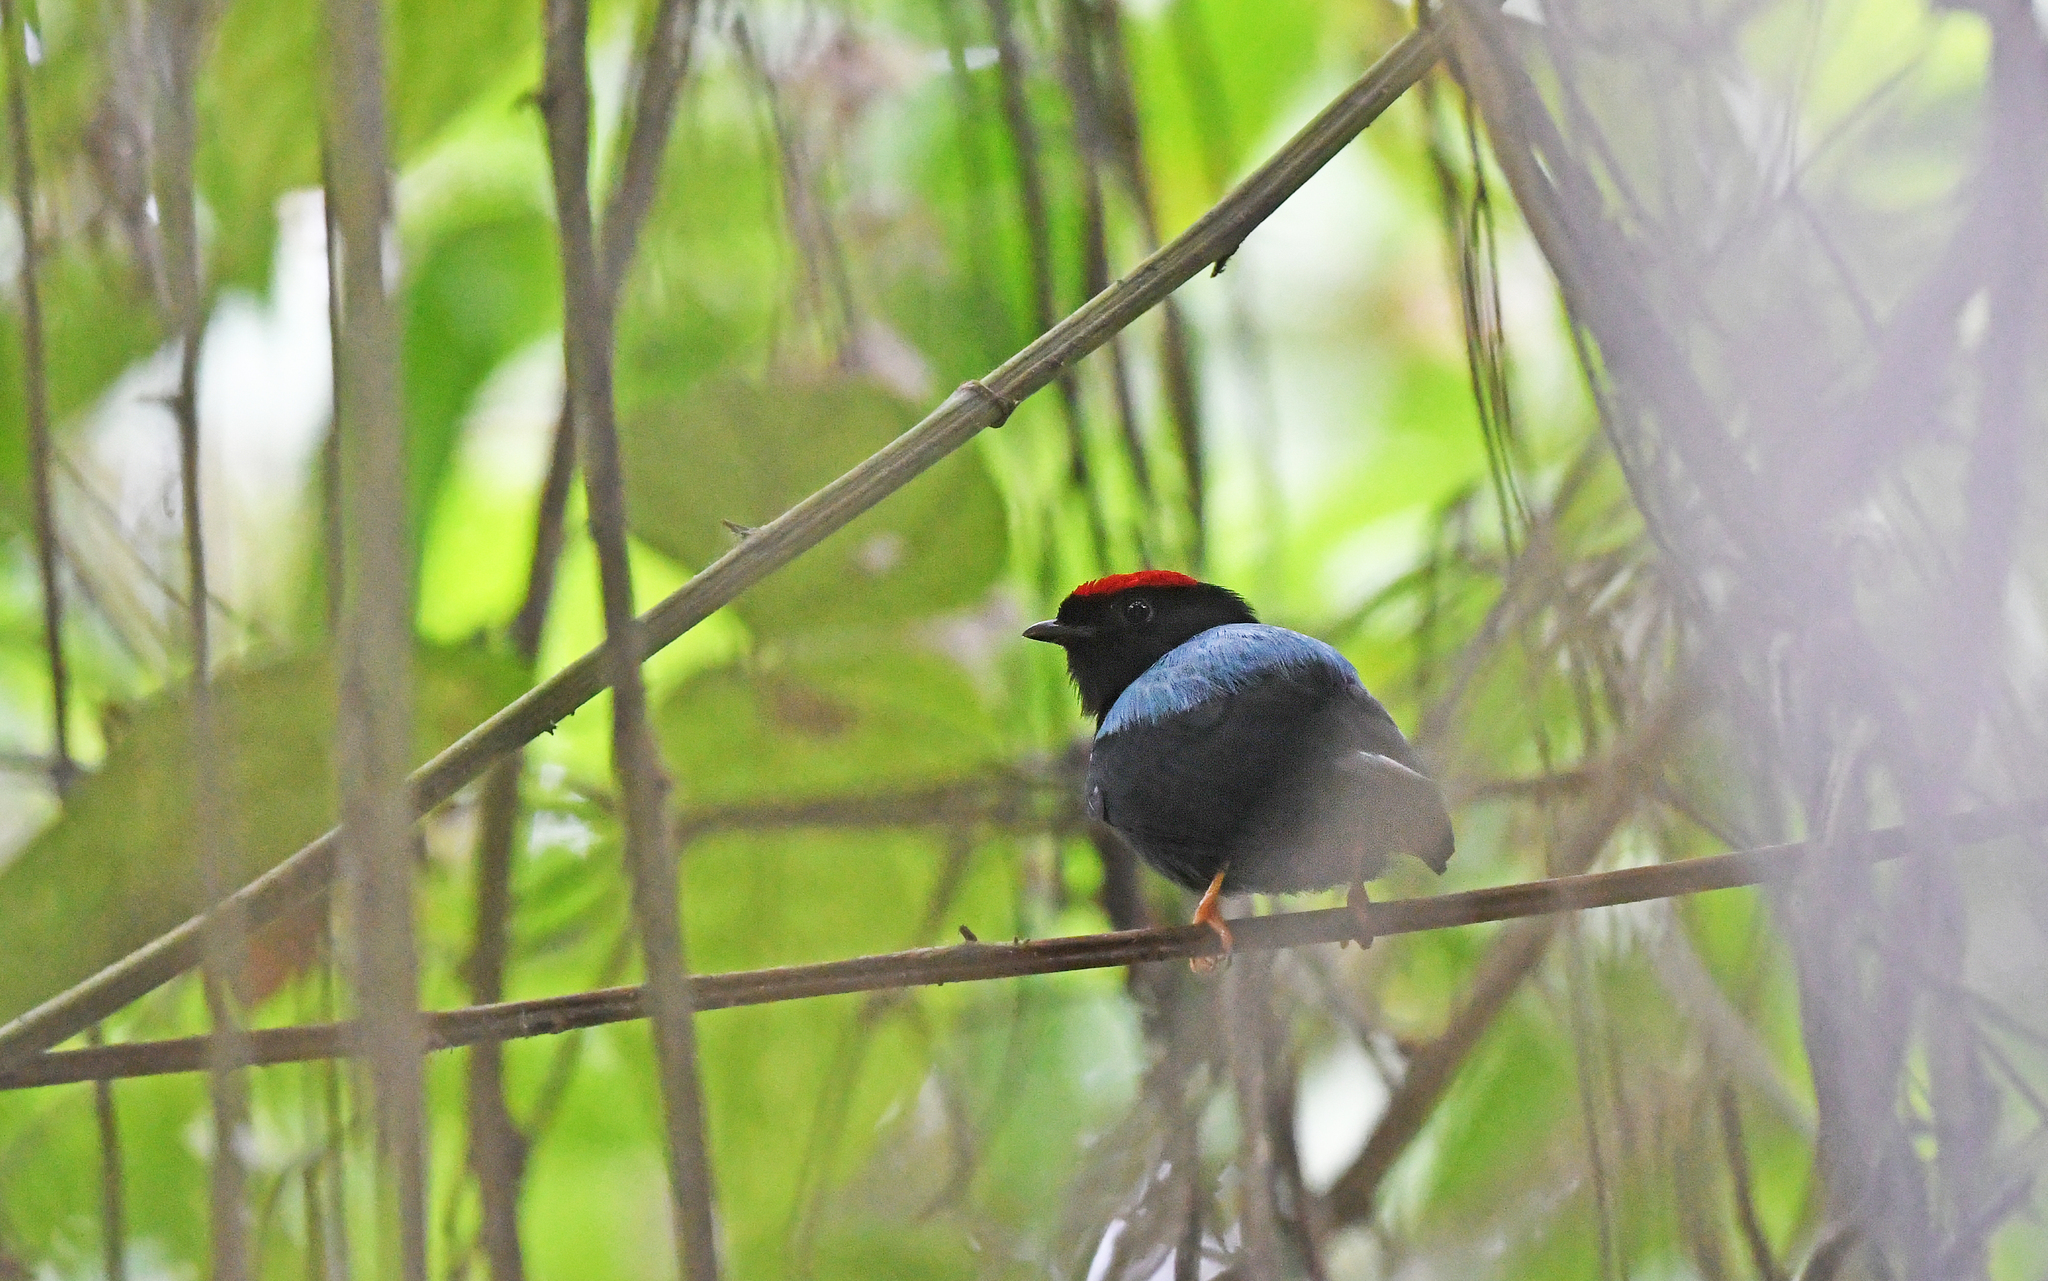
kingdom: Animalia
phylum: Chordata
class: Aves
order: Passeriformes
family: Pipridae
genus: Chiroxiphia
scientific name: Chiroxiphia lanceolata
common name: Lance-tailed manakin
